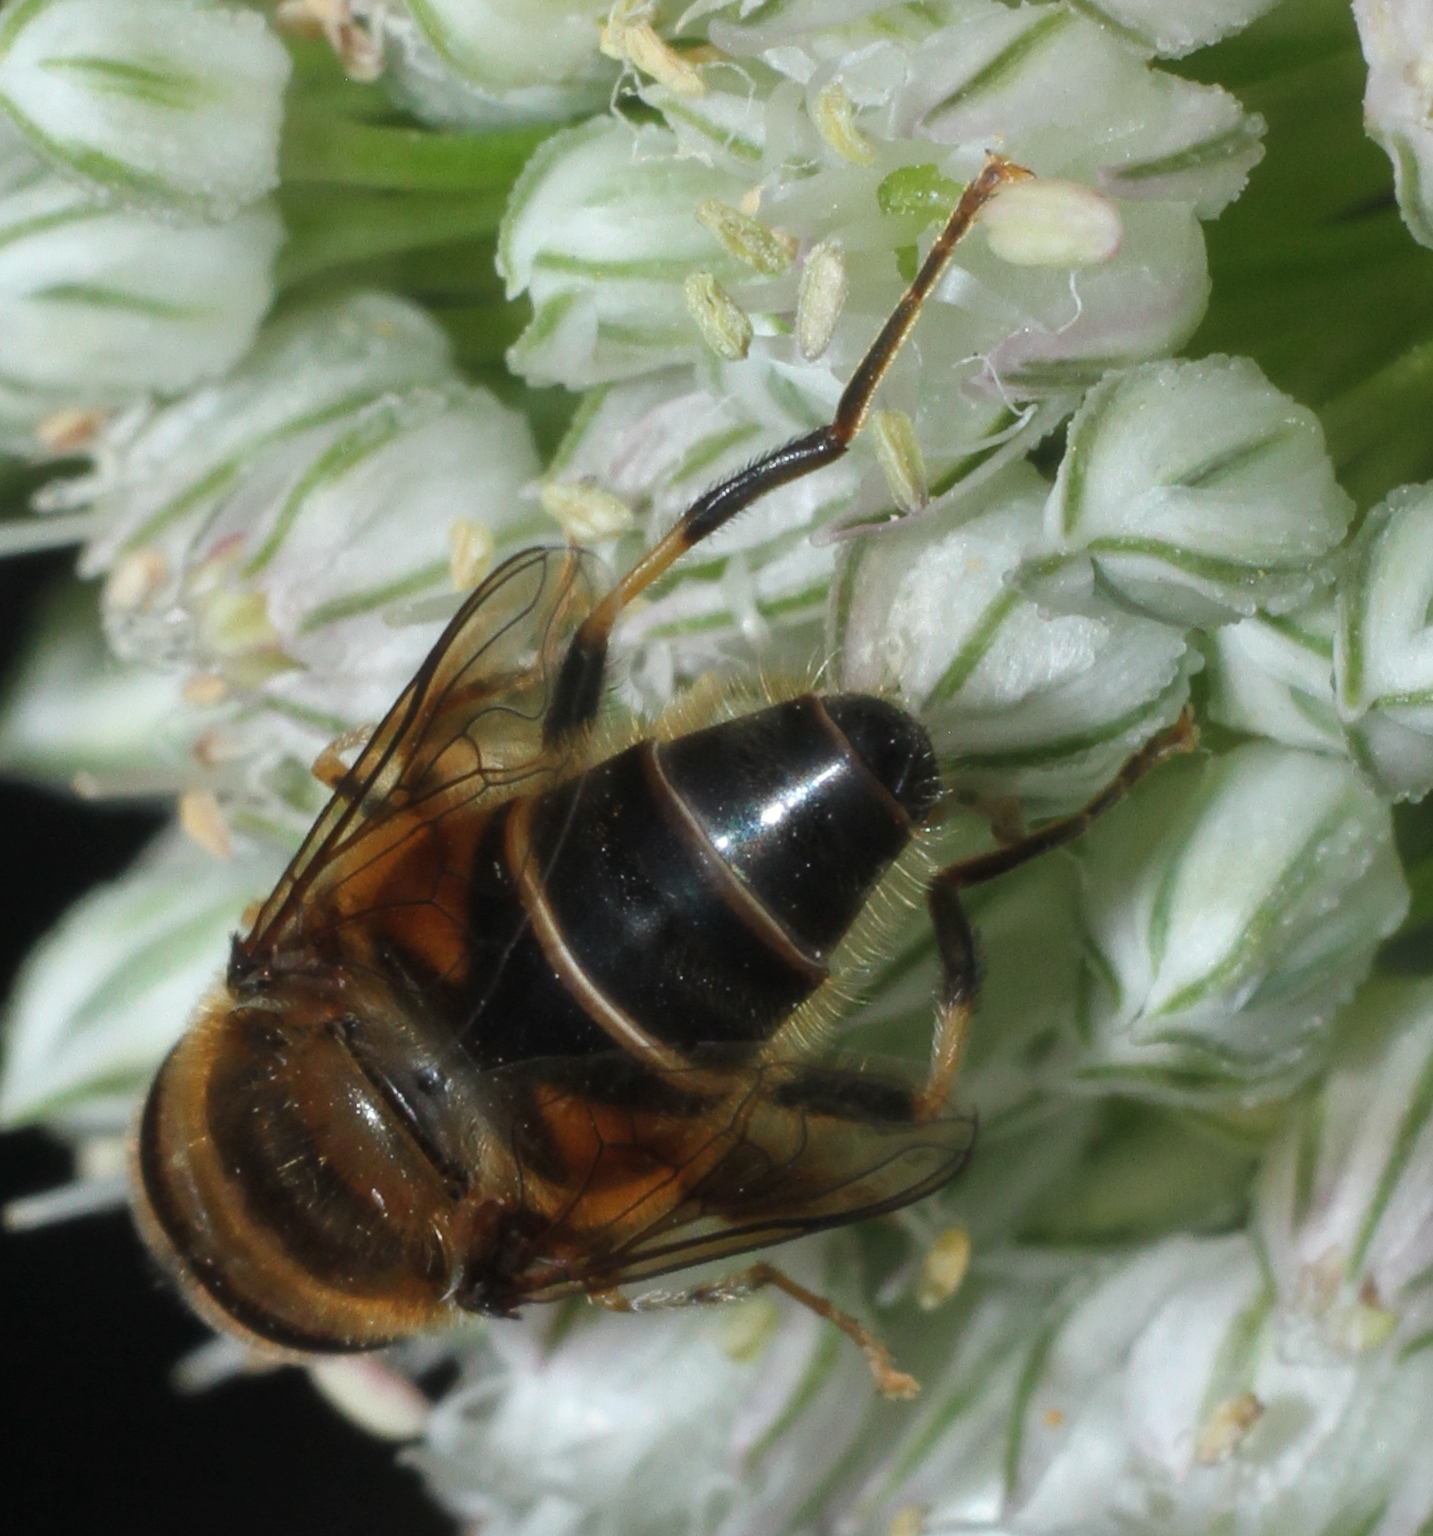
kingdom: Animalia
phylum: Arthropoda
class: Insecta
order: Diptera
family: Syrphidae
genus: Eristalis
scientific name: Eristalis pertinax
